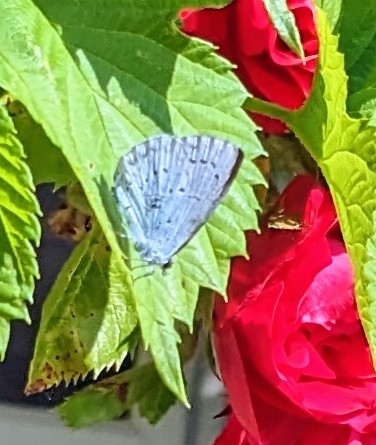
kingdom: Animalia
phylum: Arthropoda
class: Insecta
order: Lepidoptera
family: Lycaenidae
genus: Celastrina
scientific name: Celastrina argiolus
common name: Holly blue
